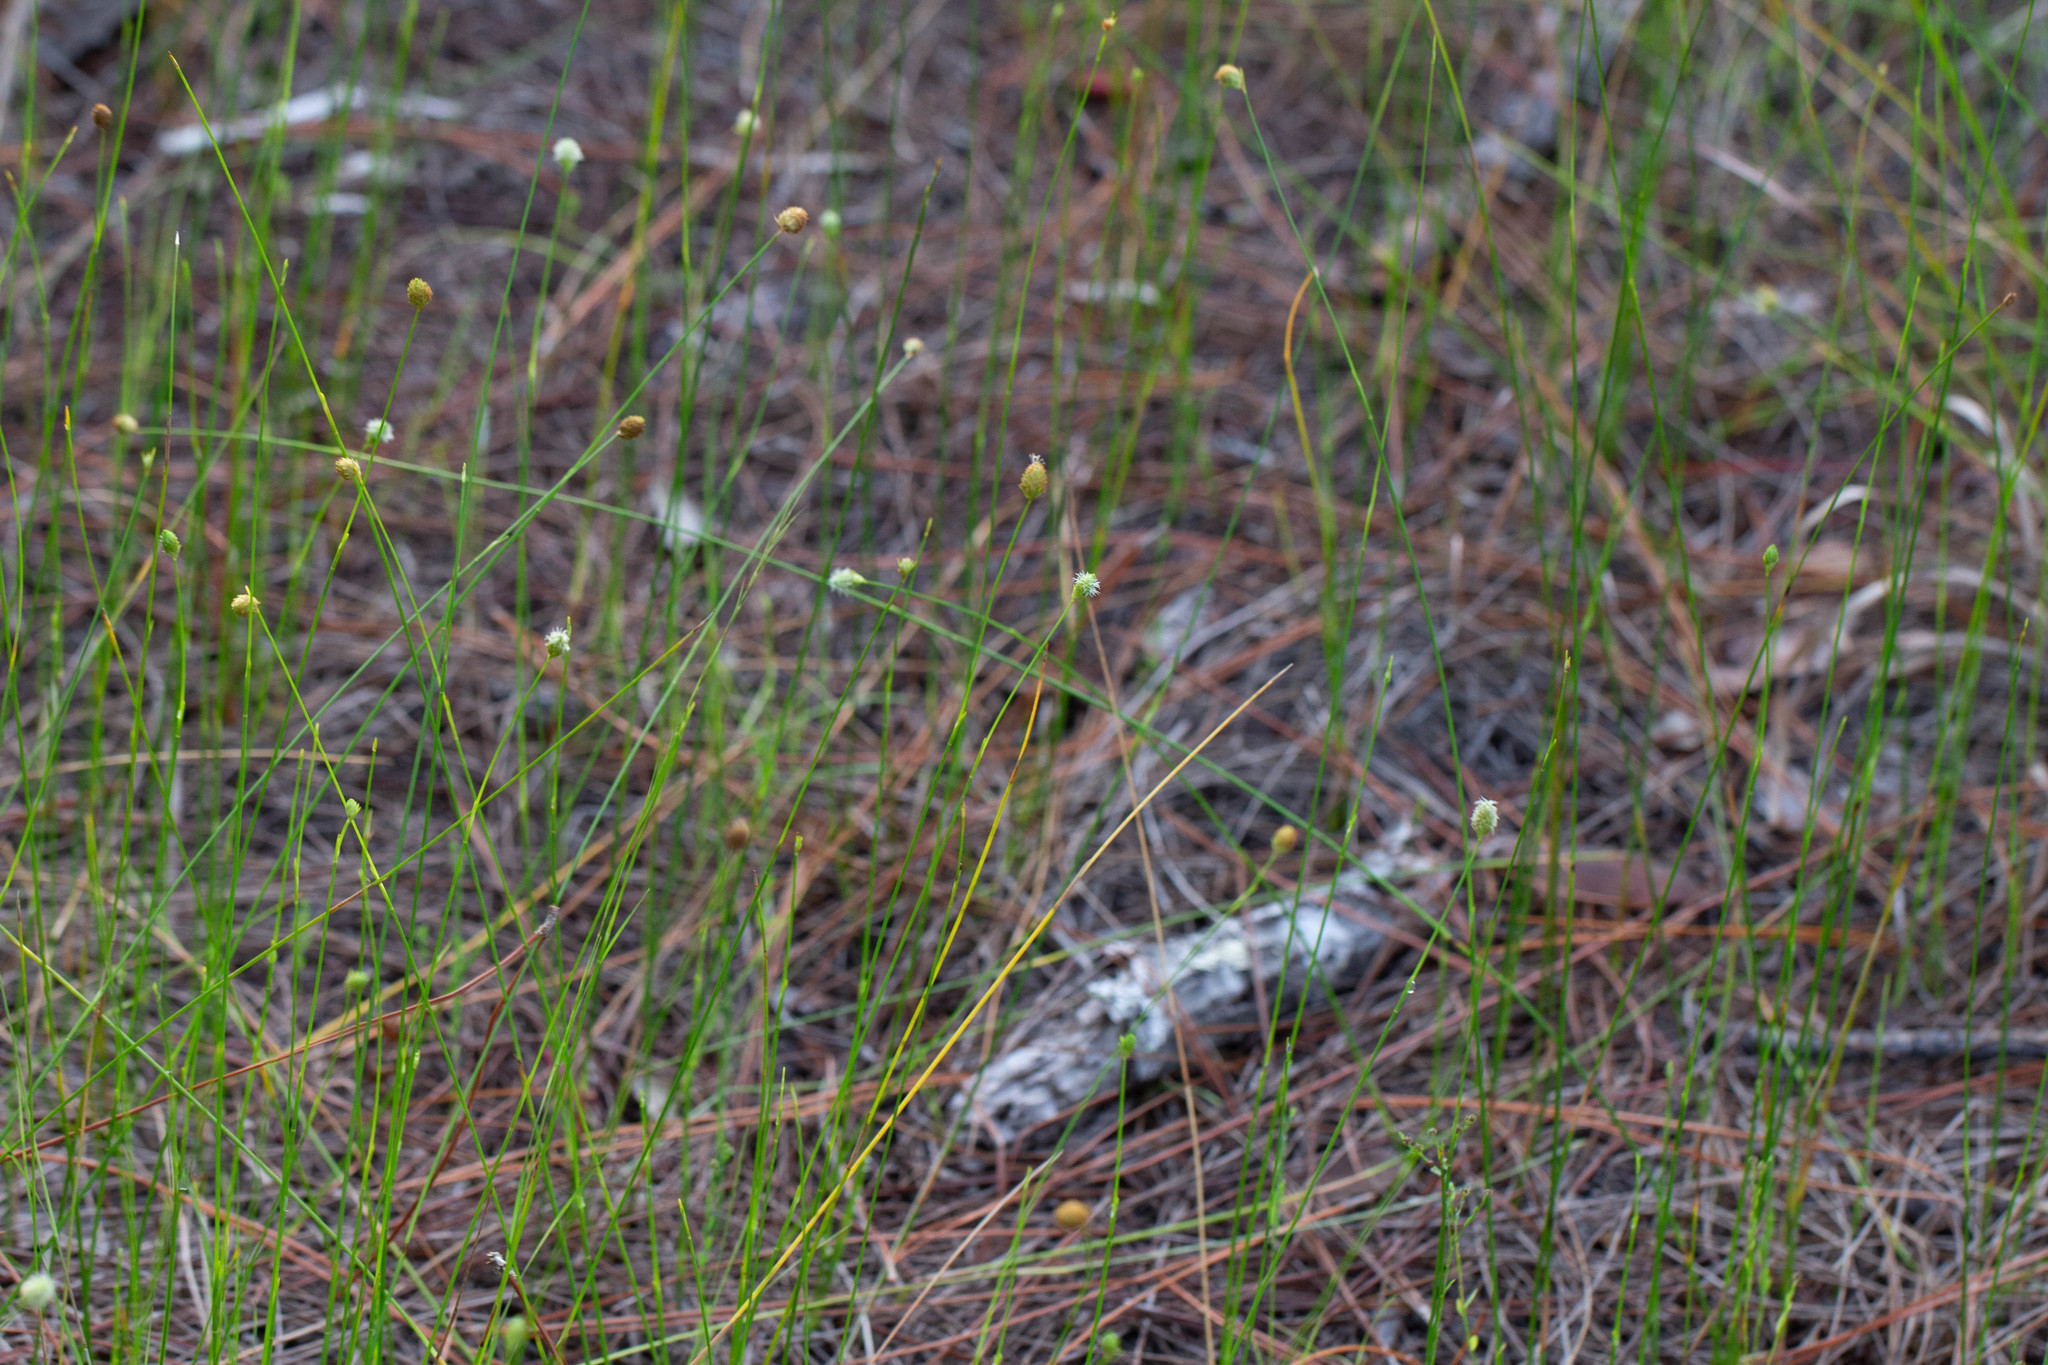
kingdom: Plantae
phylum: Tracheophyta
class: Liliopsida
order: Poales
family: Cyperaceae
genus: Fuirena
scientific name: Fuirena scirpoidea
